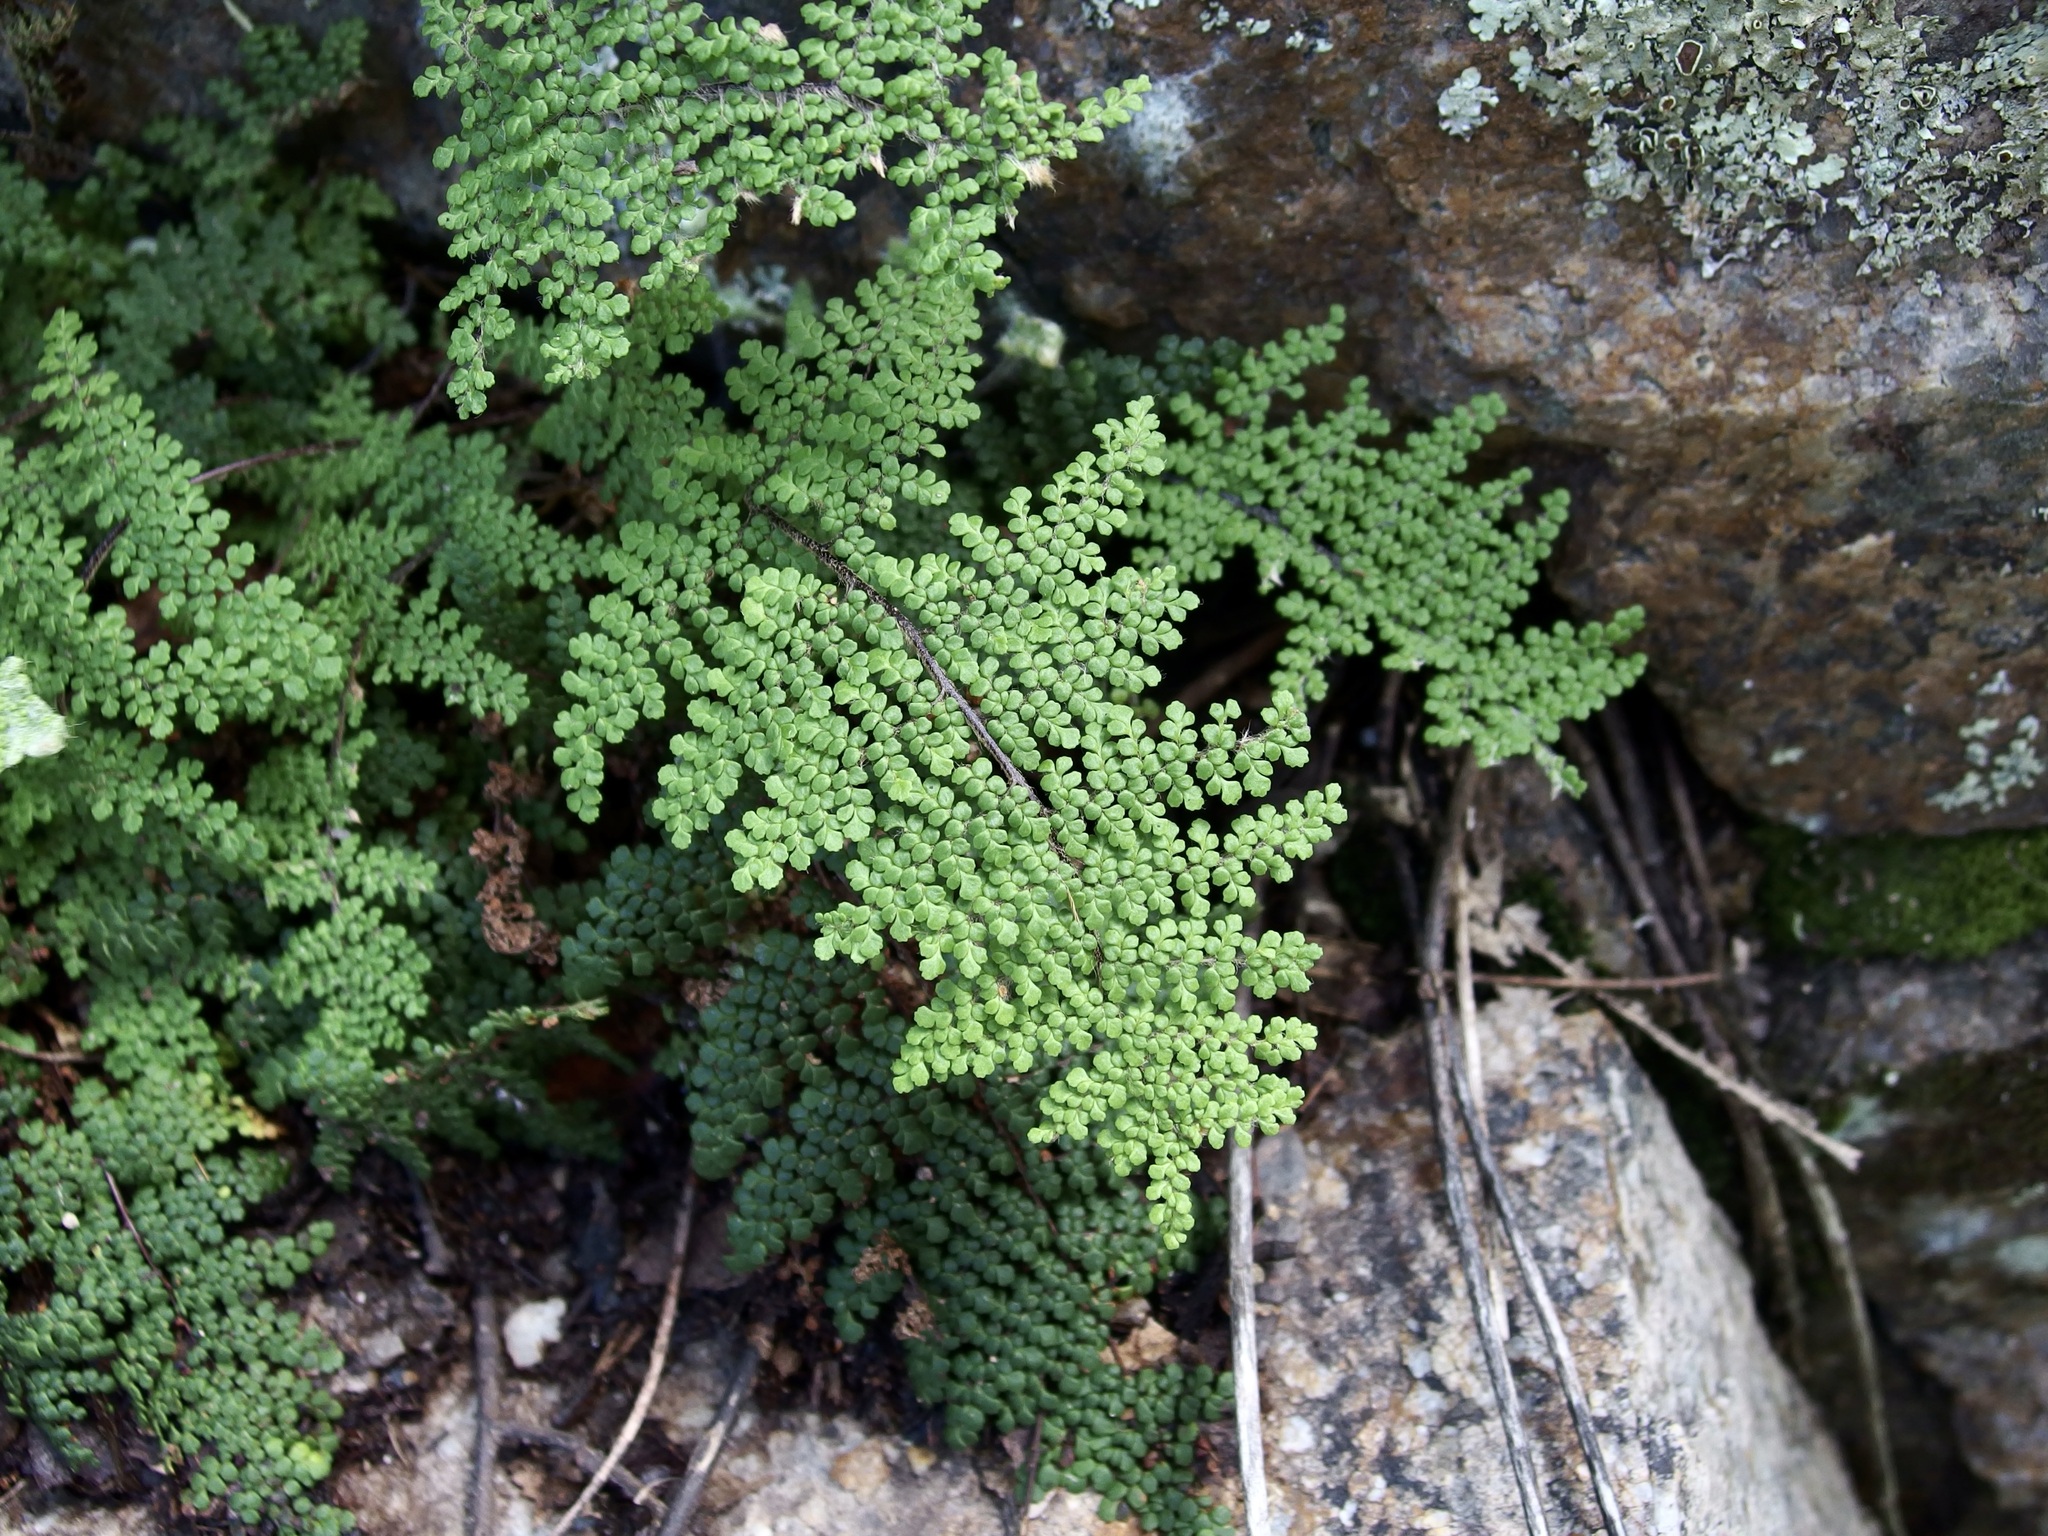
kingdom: Plantae
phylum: Tracheophyta
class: Polypodiopsida
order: Polypodiales
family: Pteridaceae
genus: Myriopteris
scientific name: Myriopteris lendigera
